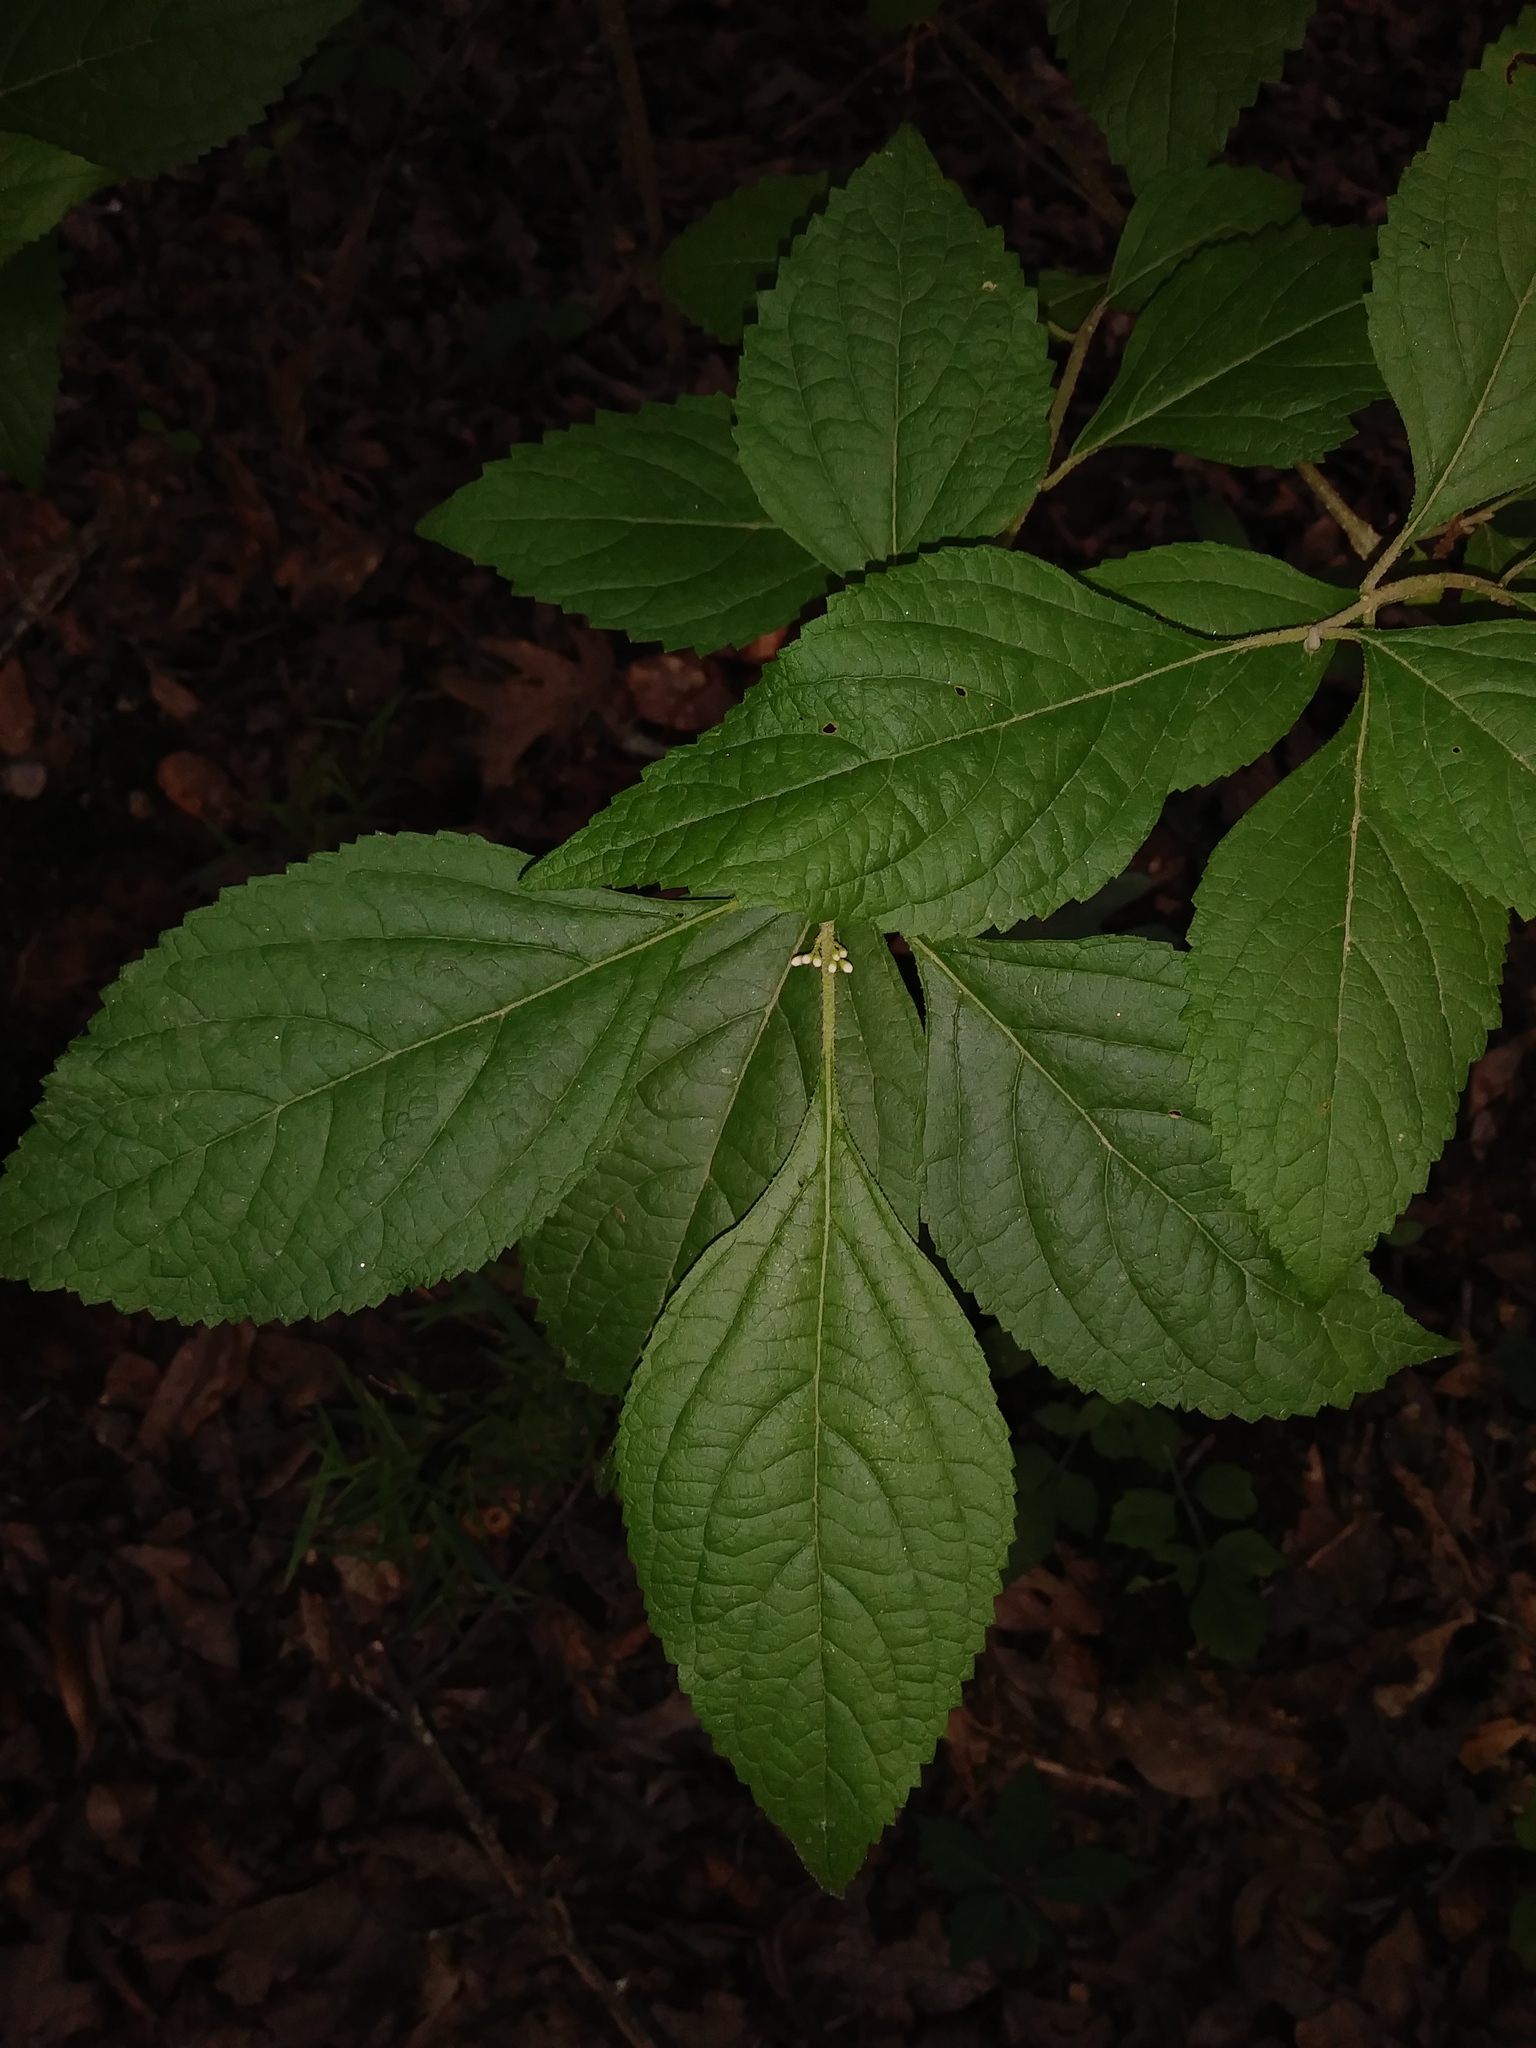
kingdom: Plantae
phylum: Tracheophyta
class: Magnoliopsida
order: Lamiales
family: Lamiaceae
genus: Callicarpa
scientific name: Callicarpa americana
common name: American beautyberry
